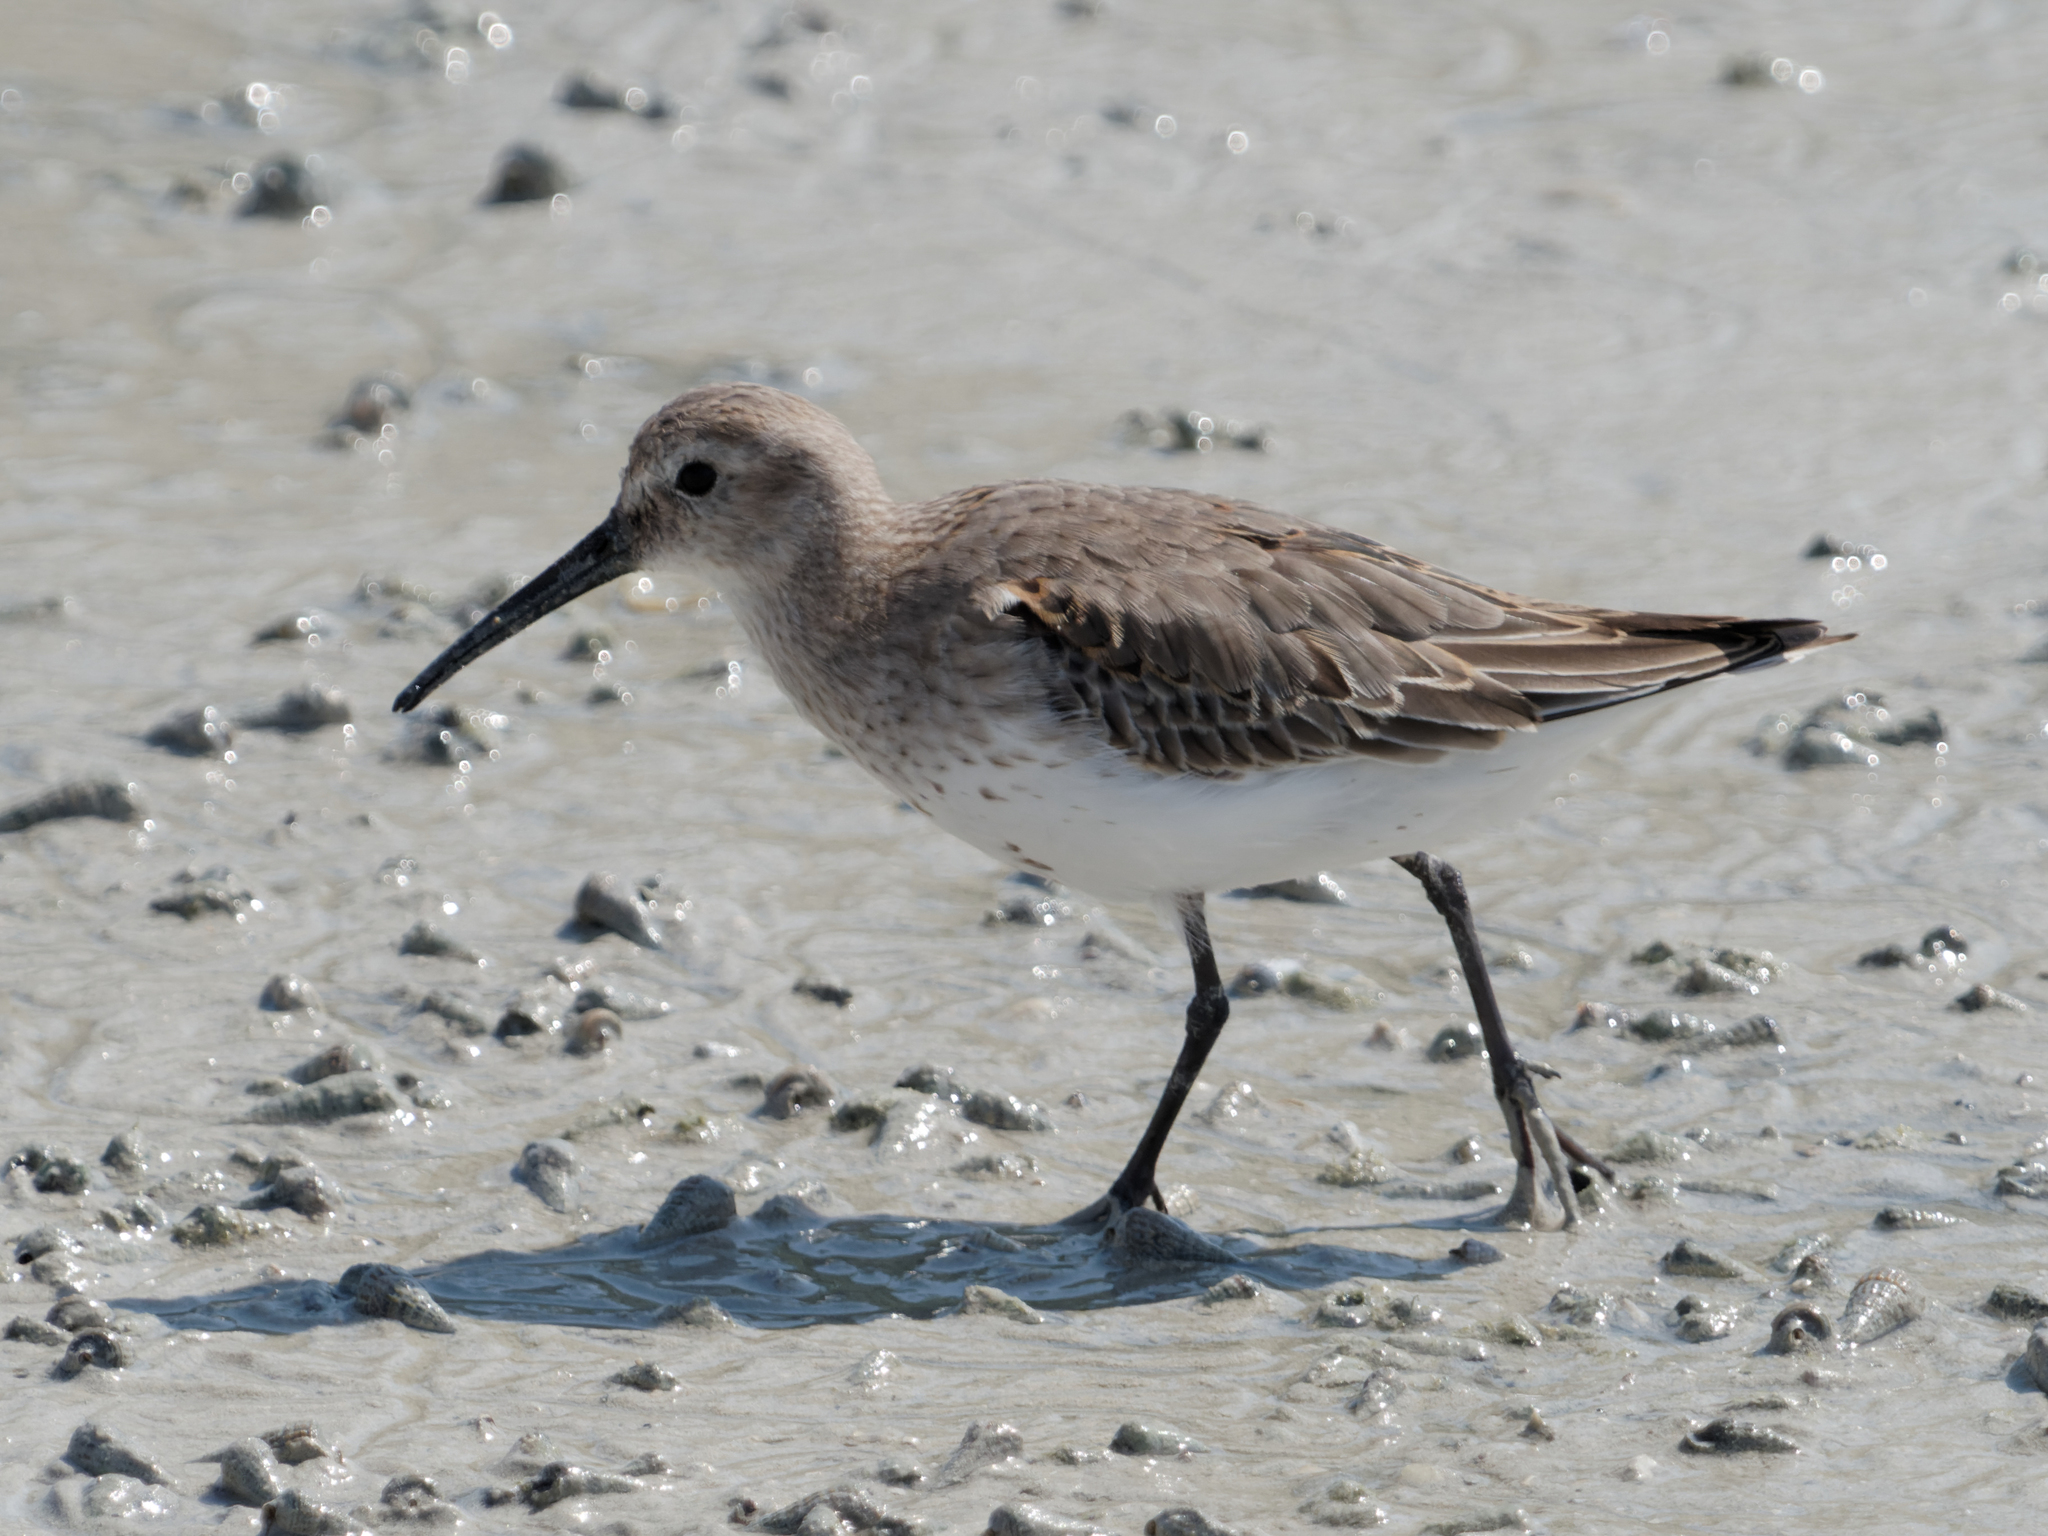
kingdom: Animalia
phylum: Chordata
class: Aves
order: Charadriiformes
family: Scolopacidae
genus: Calidris
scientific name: Calidris alpina
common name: Dunlin
